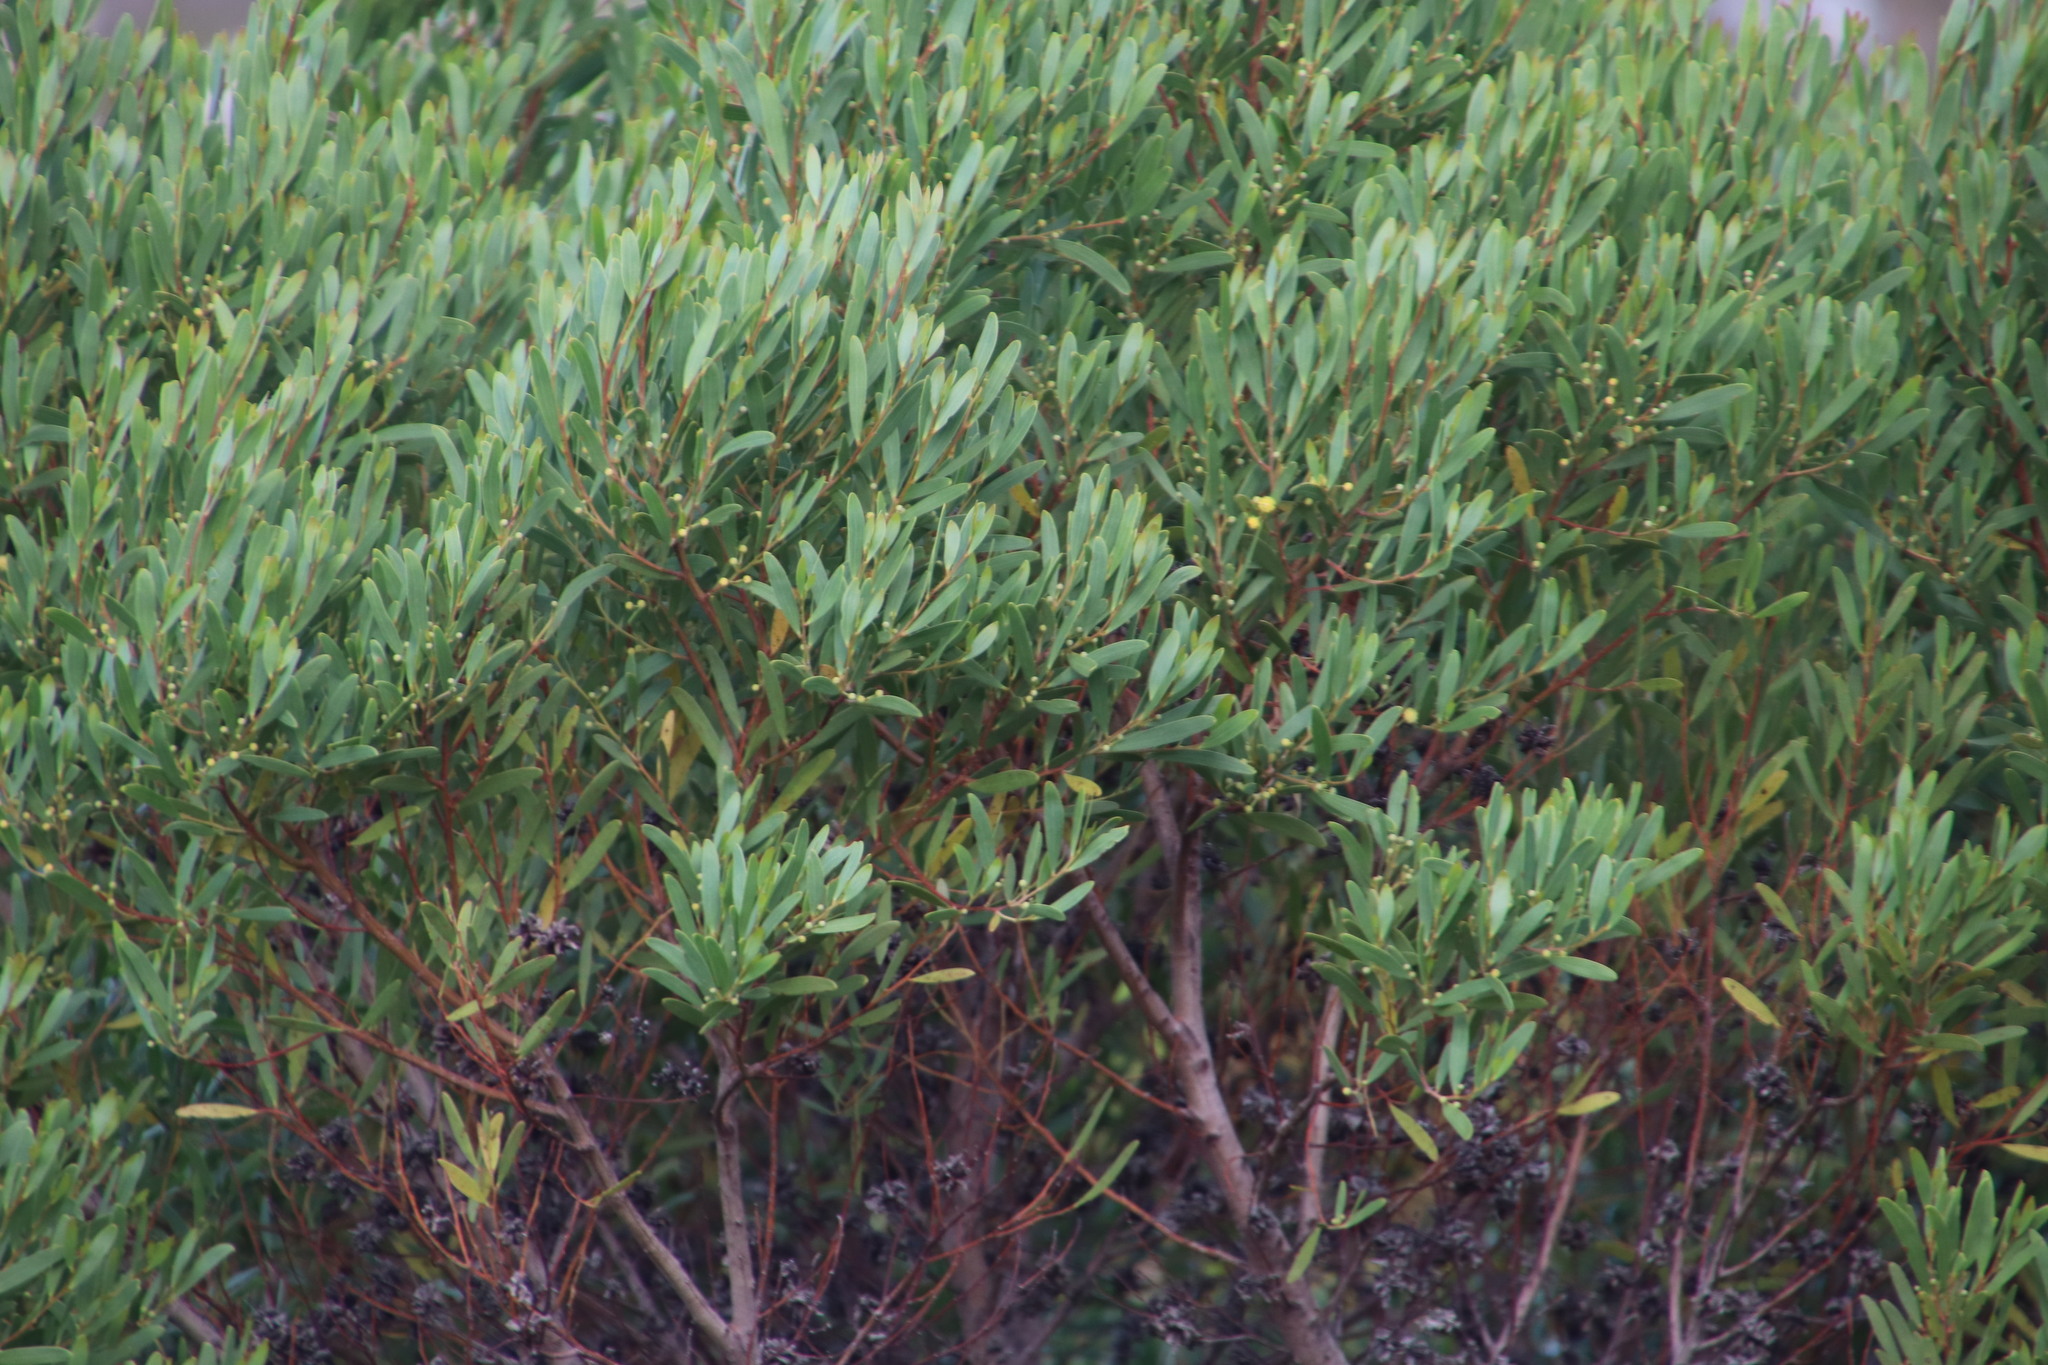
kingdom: Plantae
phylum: Tracheophyta
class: Magnoliopsida
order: Fabales
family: Fabaceae
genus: Acacia
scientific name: Acacia cyclops
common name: Coastal wattle
